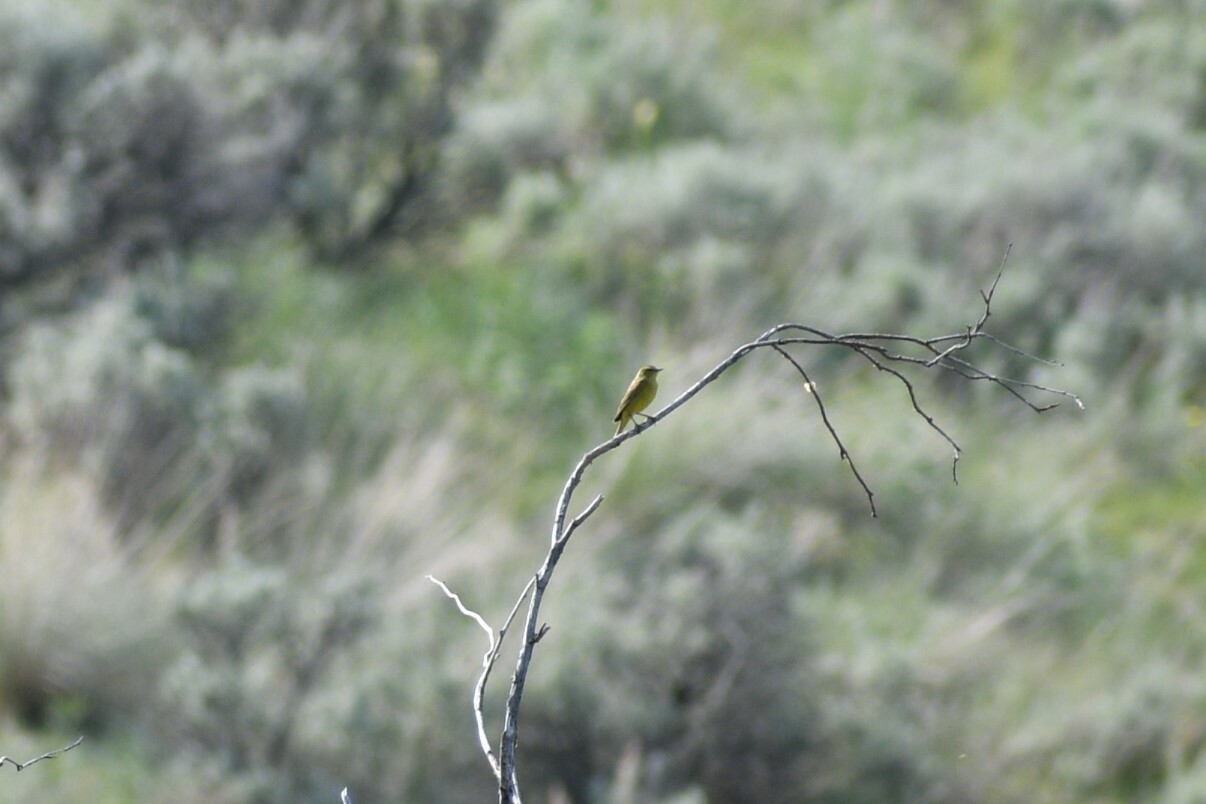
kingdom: Animalia
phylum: Chordata
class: Aves
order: Passeriformes
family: Parulidae
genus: Leiothlypis
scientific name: Leiothlypis celata
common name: Orange-crowned warbler
